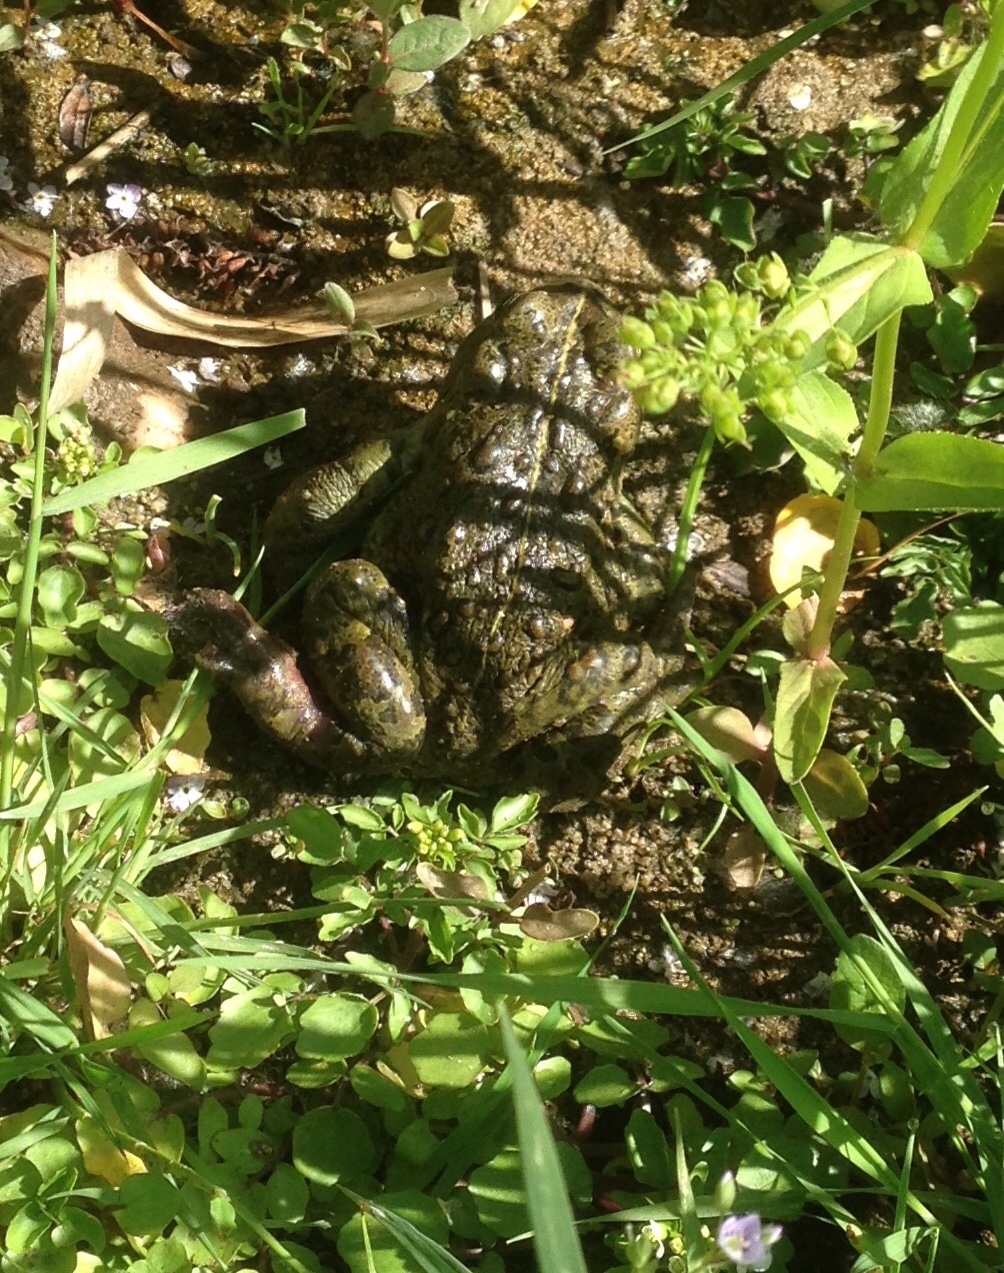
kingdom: Animalia
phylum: Chordata
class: Amphibia
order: Anura
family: Bufonidae
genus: Anaxyrus
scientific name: Anaxyrus boreas
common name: Western toad
